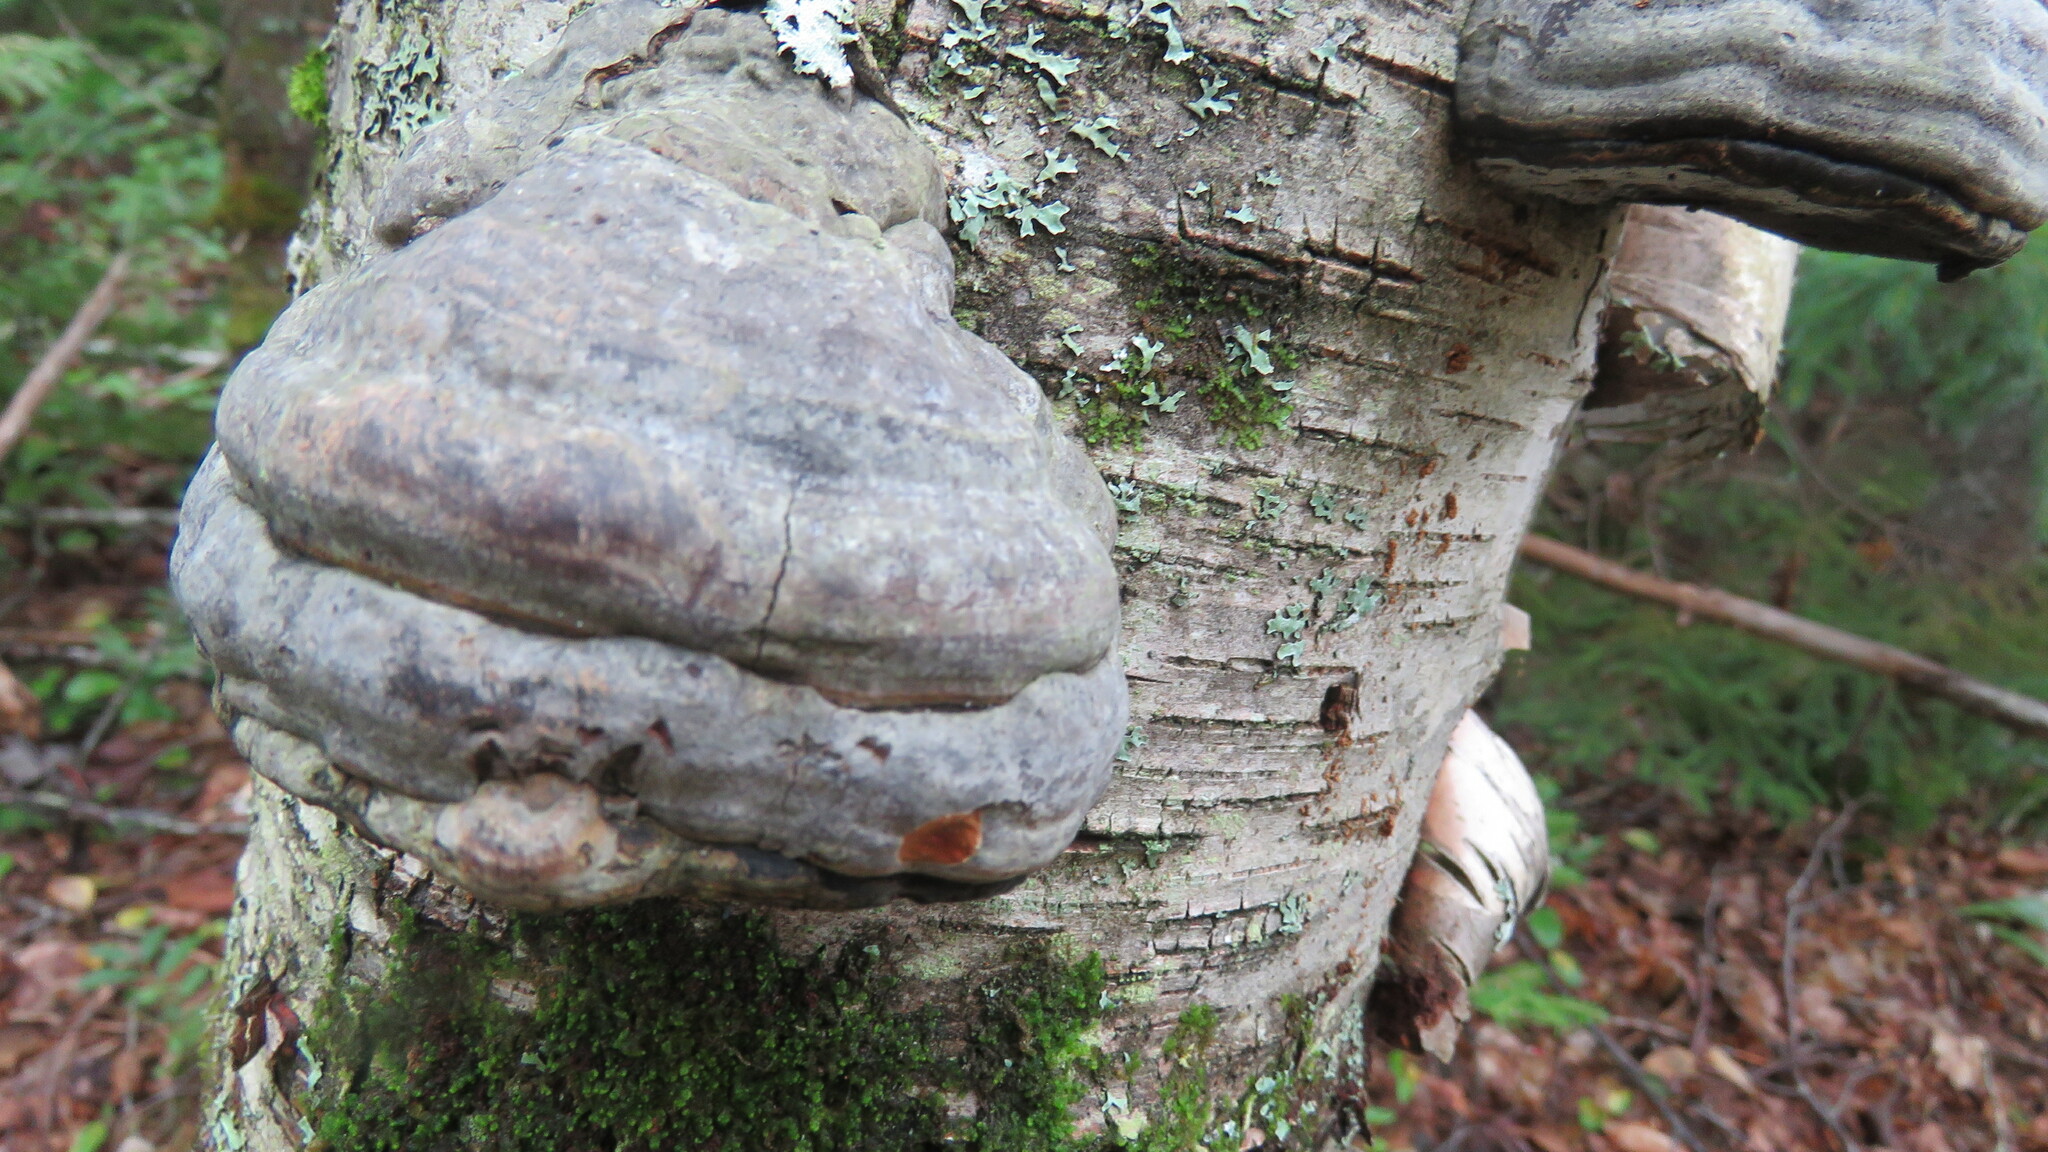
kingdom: Fungi
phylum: Basidiomycota
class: Agaricomycetes
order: Polyporales
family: Polyporaceae
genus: Fomes
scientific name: Fomes fomentarius
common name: Hoof fungus
